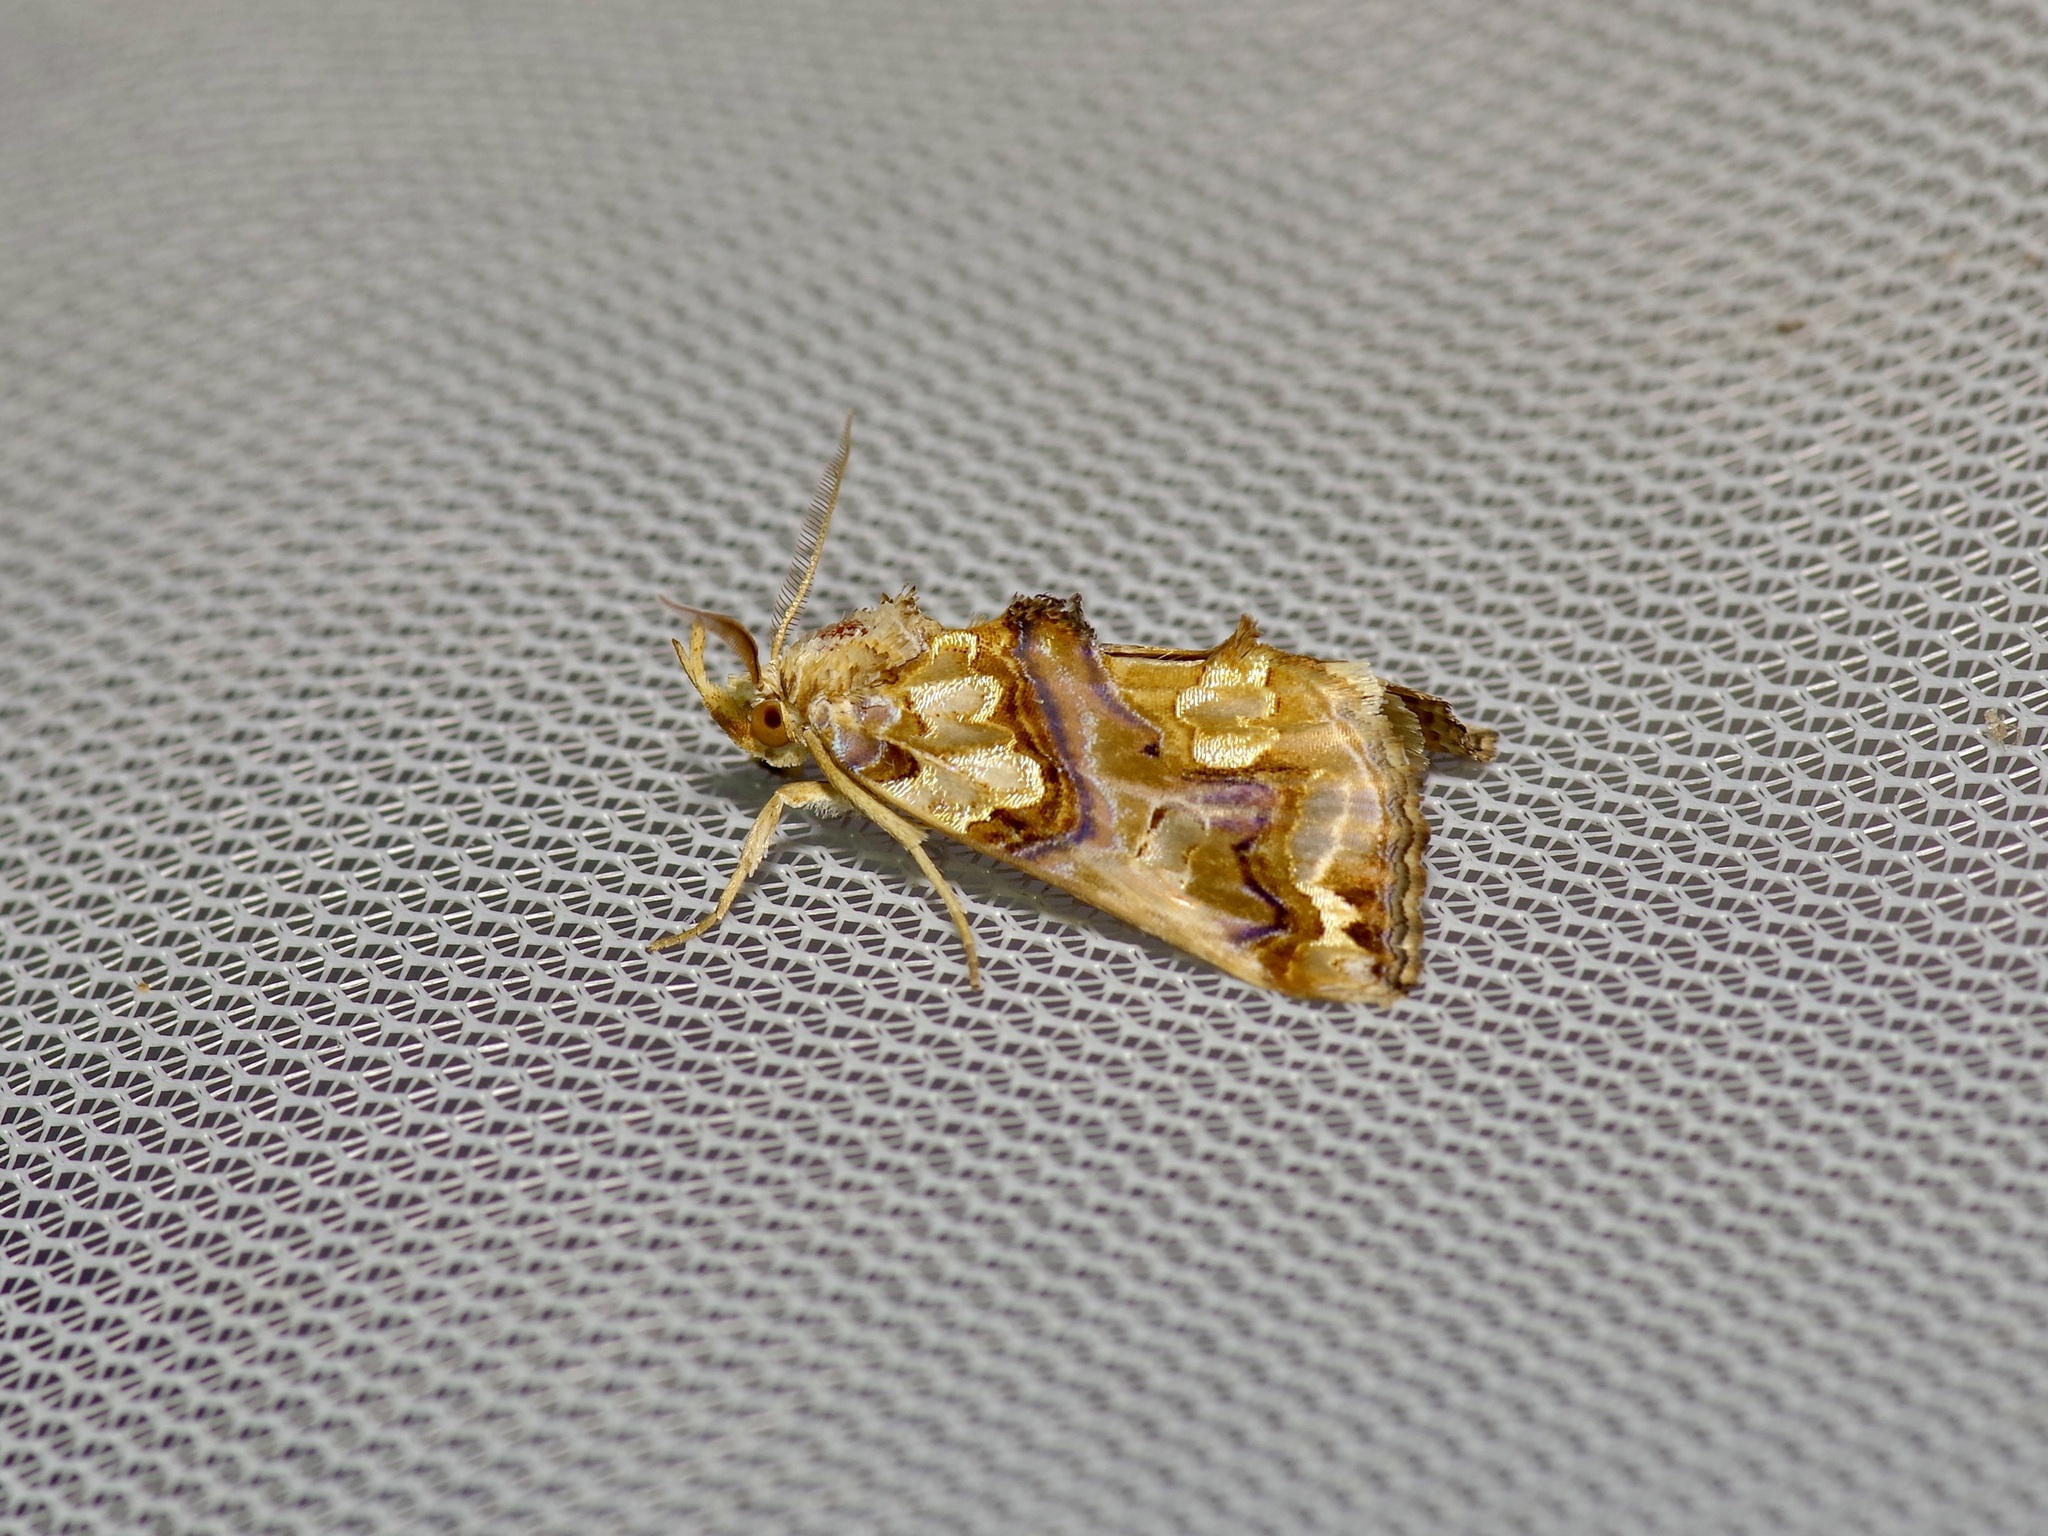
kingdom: Animalia
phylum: Arthropoda
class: Insecta
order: Lepidoptera
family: Erebidae
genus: Plusiodonta
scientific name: Plusiodonta compressipalpis
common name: Moonseed moth
